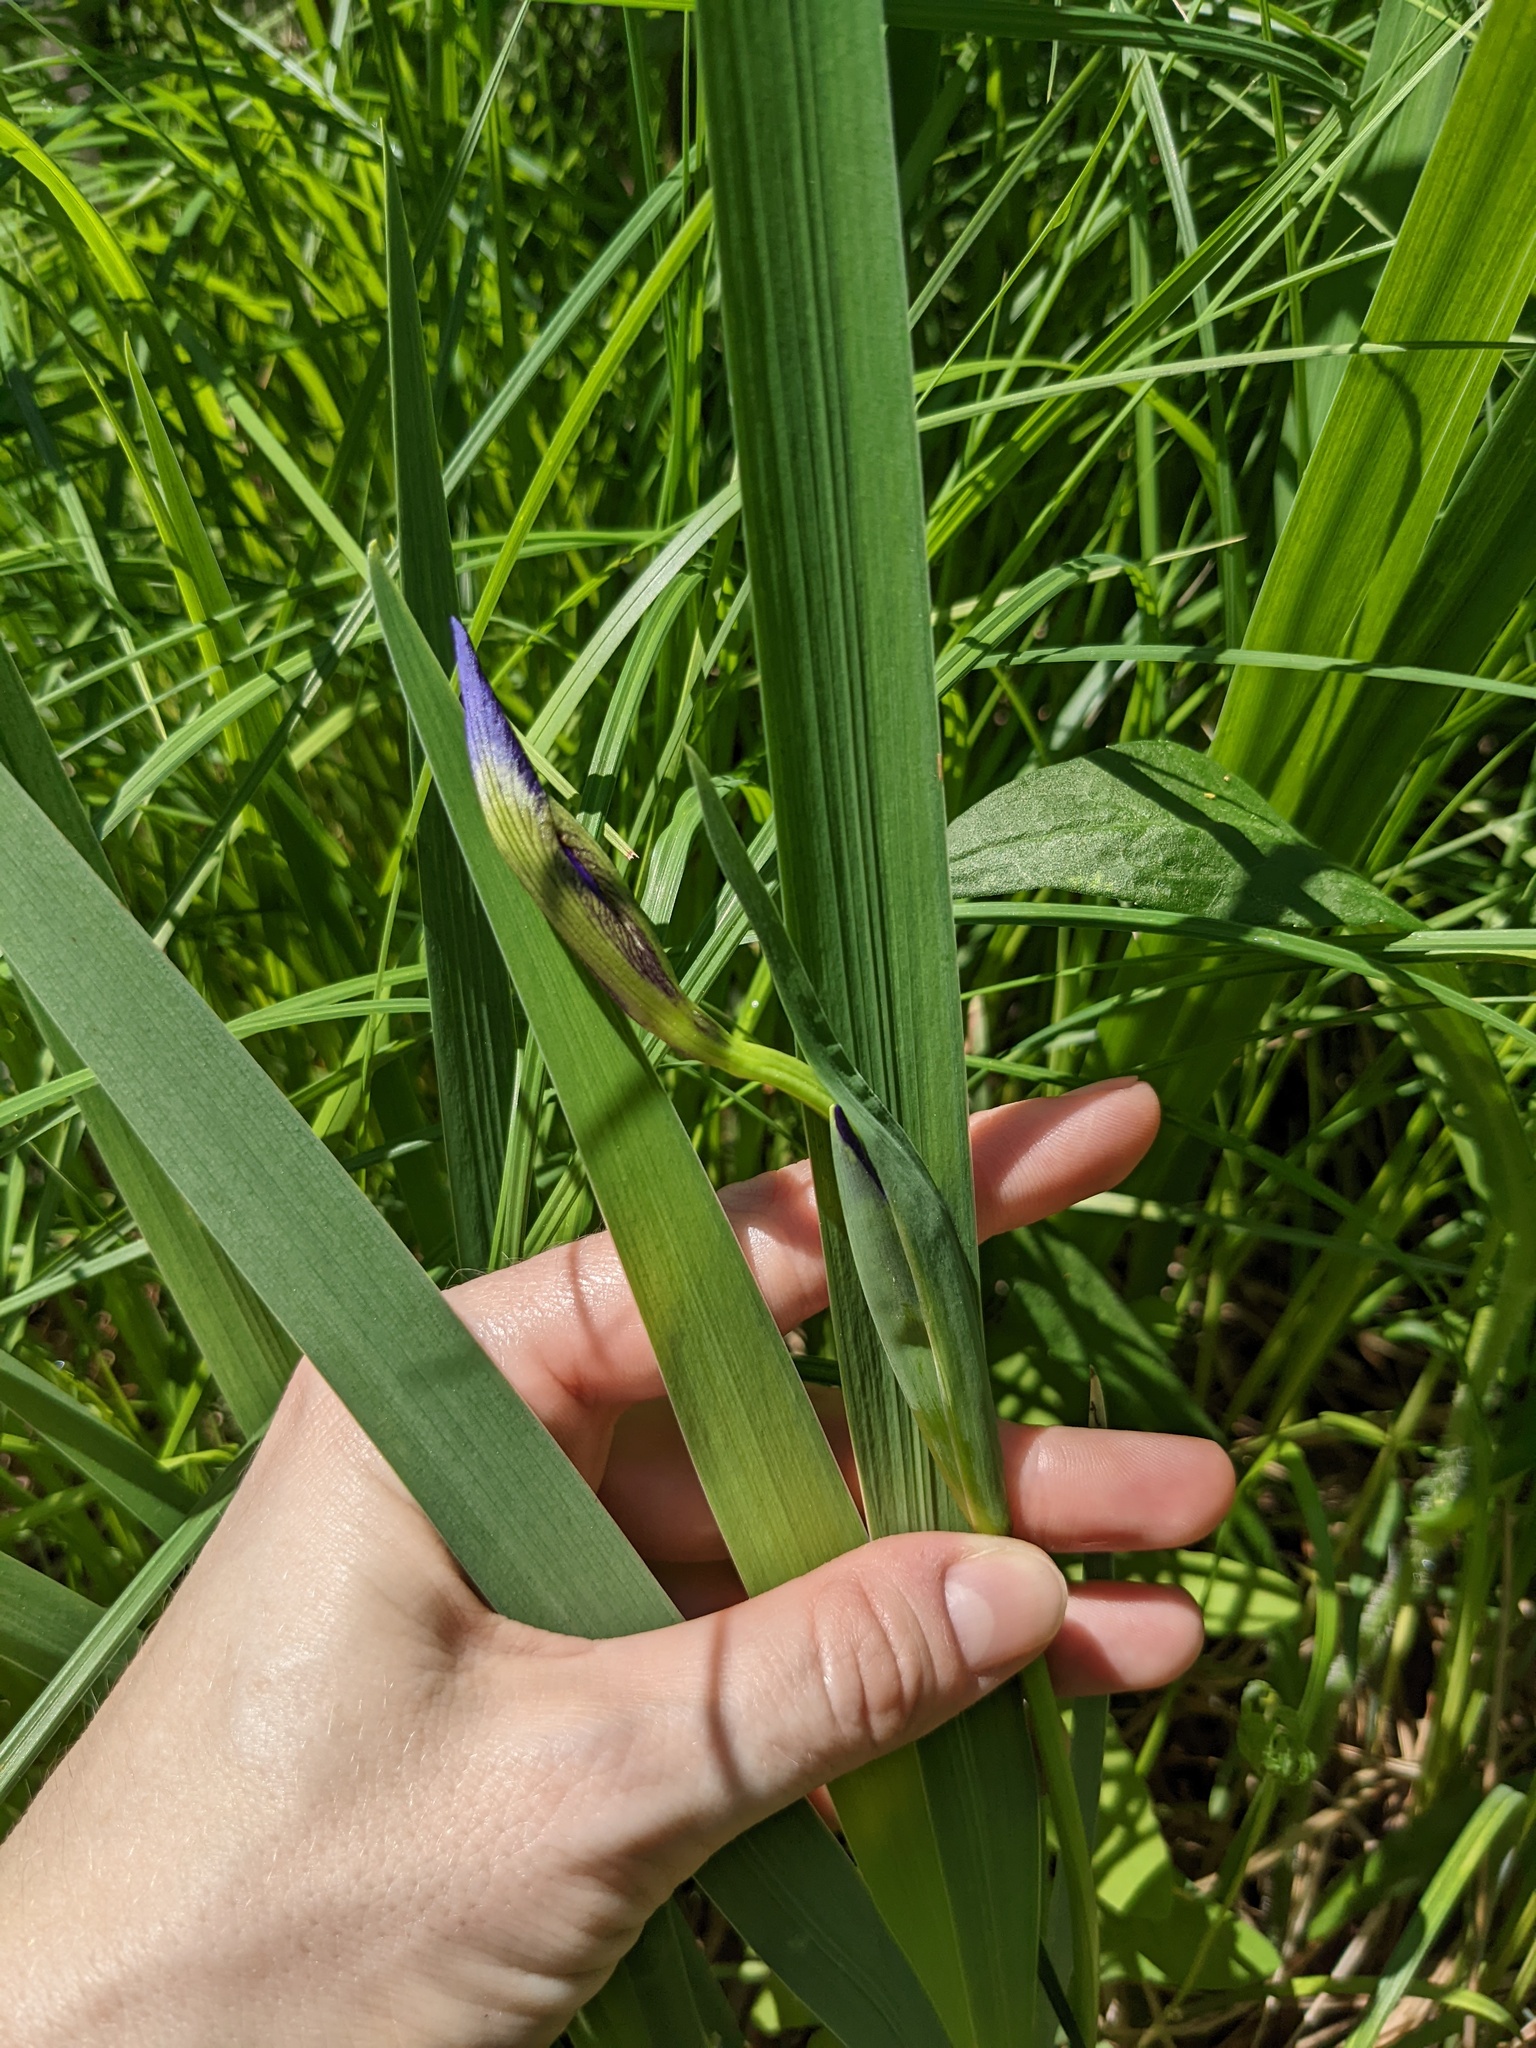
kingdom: Plantae
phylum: Tracheophyta
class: Liliopsida
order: Asparagales
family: Iridaceae
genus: Iris
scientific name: Iris versicolor
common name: Purple iris
